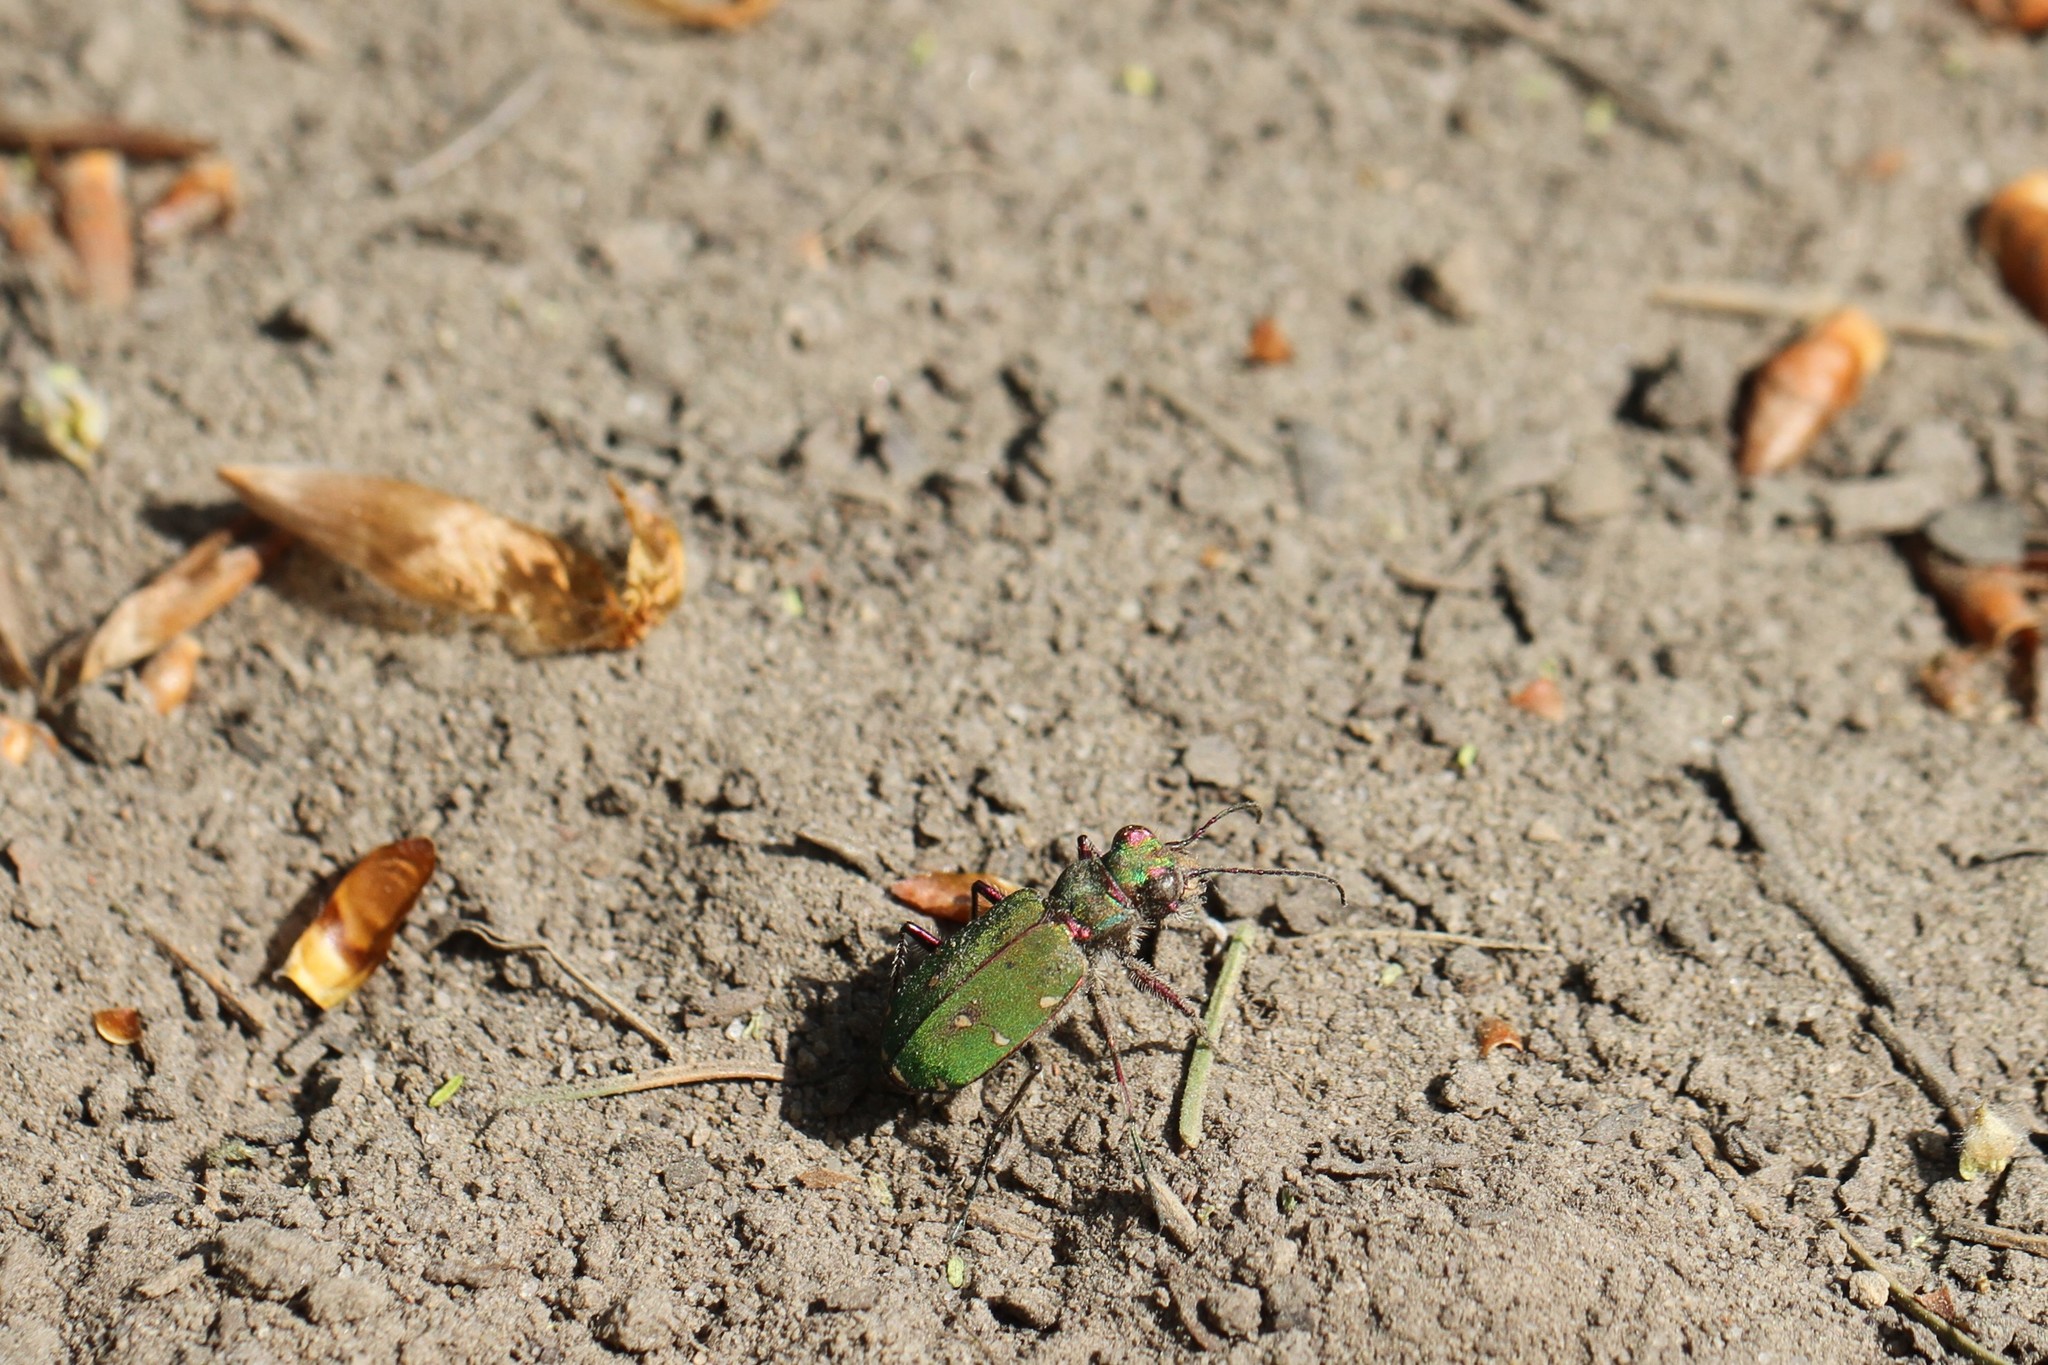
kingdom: Animalia
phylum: Arthropoda
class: Insecta
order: Coleoptera
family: Carabidae
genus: Cicindela
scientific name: Cicindela campestris
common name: Common tiger beetle
